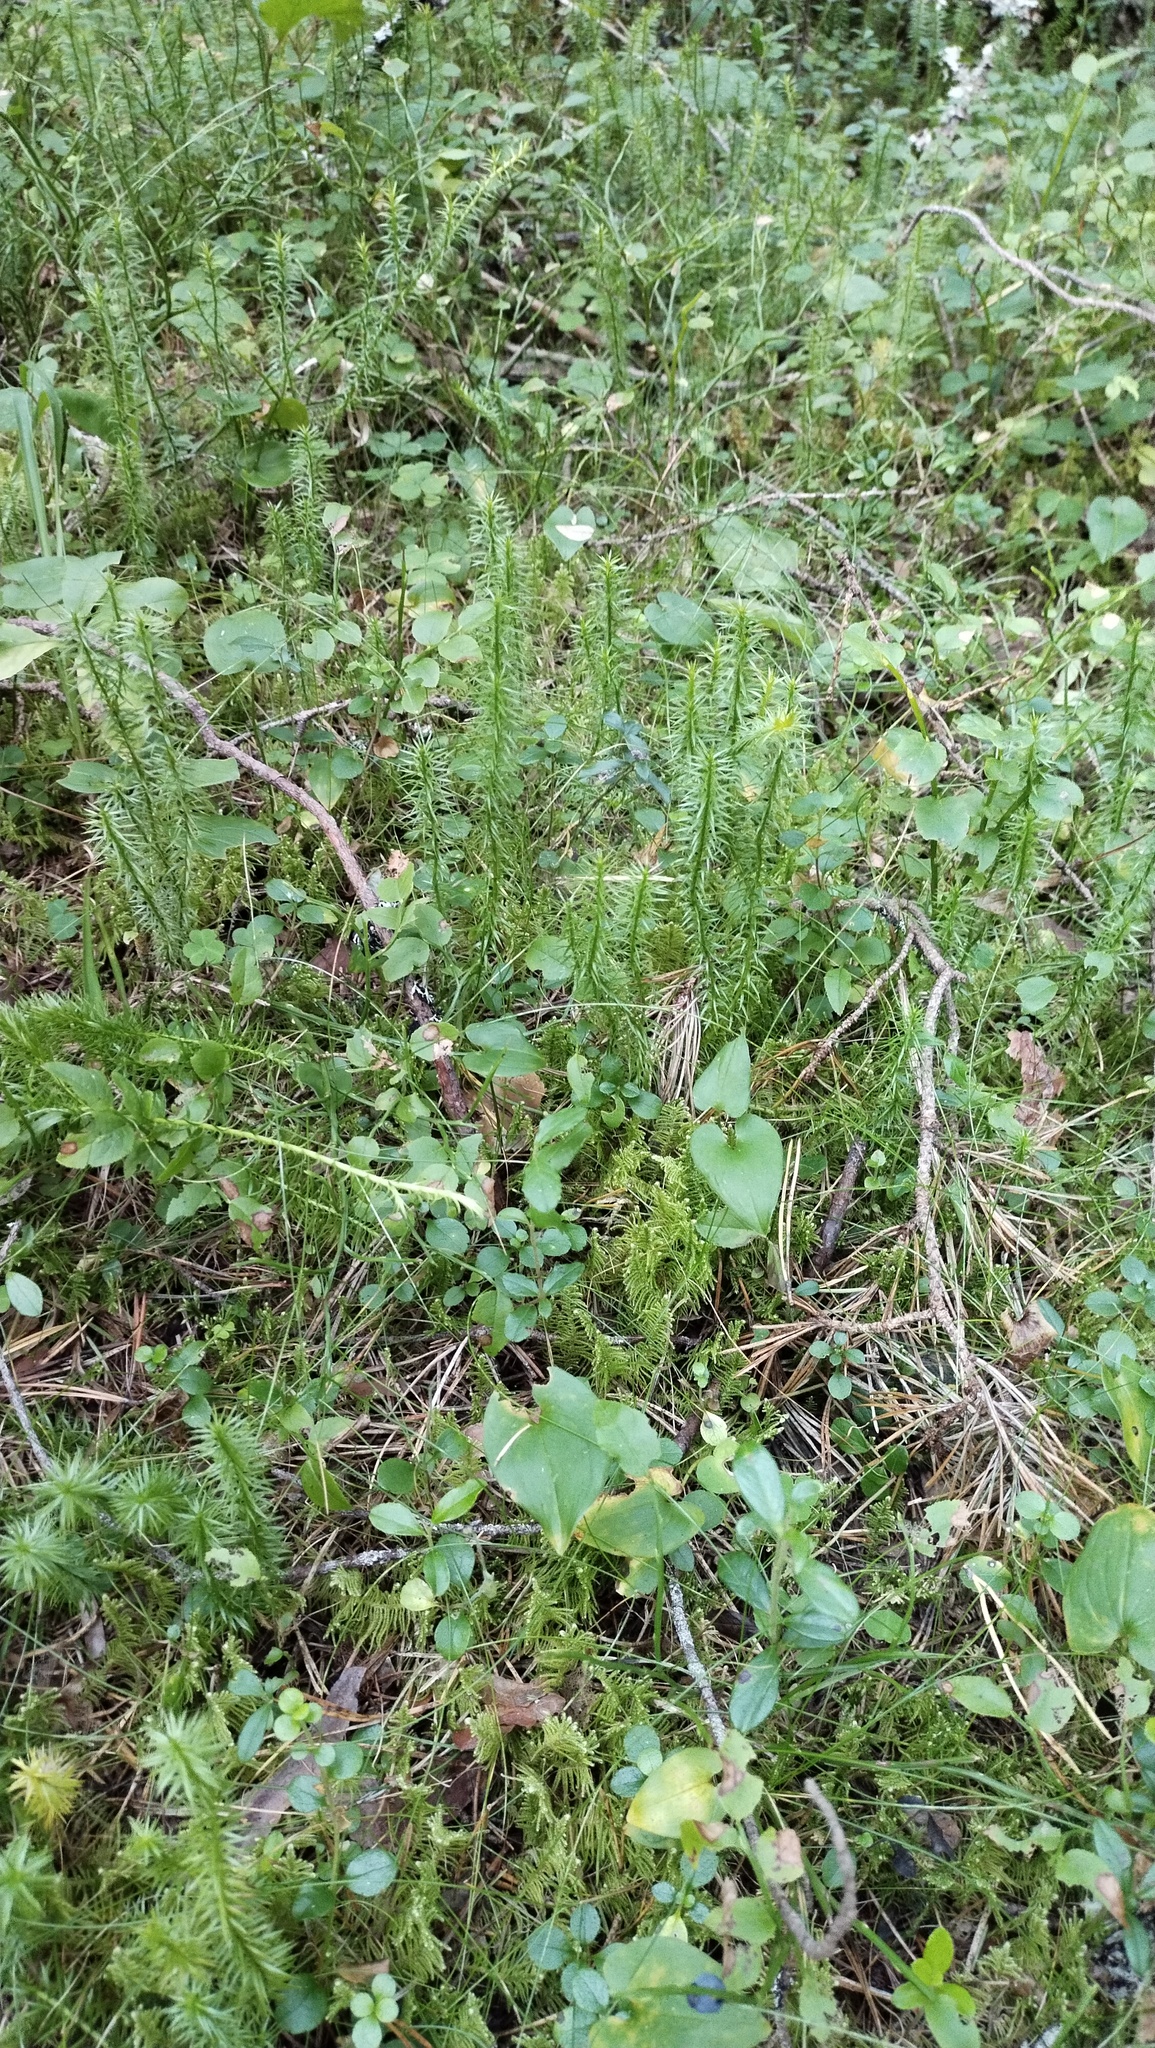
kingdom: Plantae
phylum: Tracheophyta
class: Lycopodiopsida
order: Lycopodiales
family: Lycopodiaceae
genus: Spinulum
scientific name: Spinulum annotinum
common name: Interrupted club-moss
